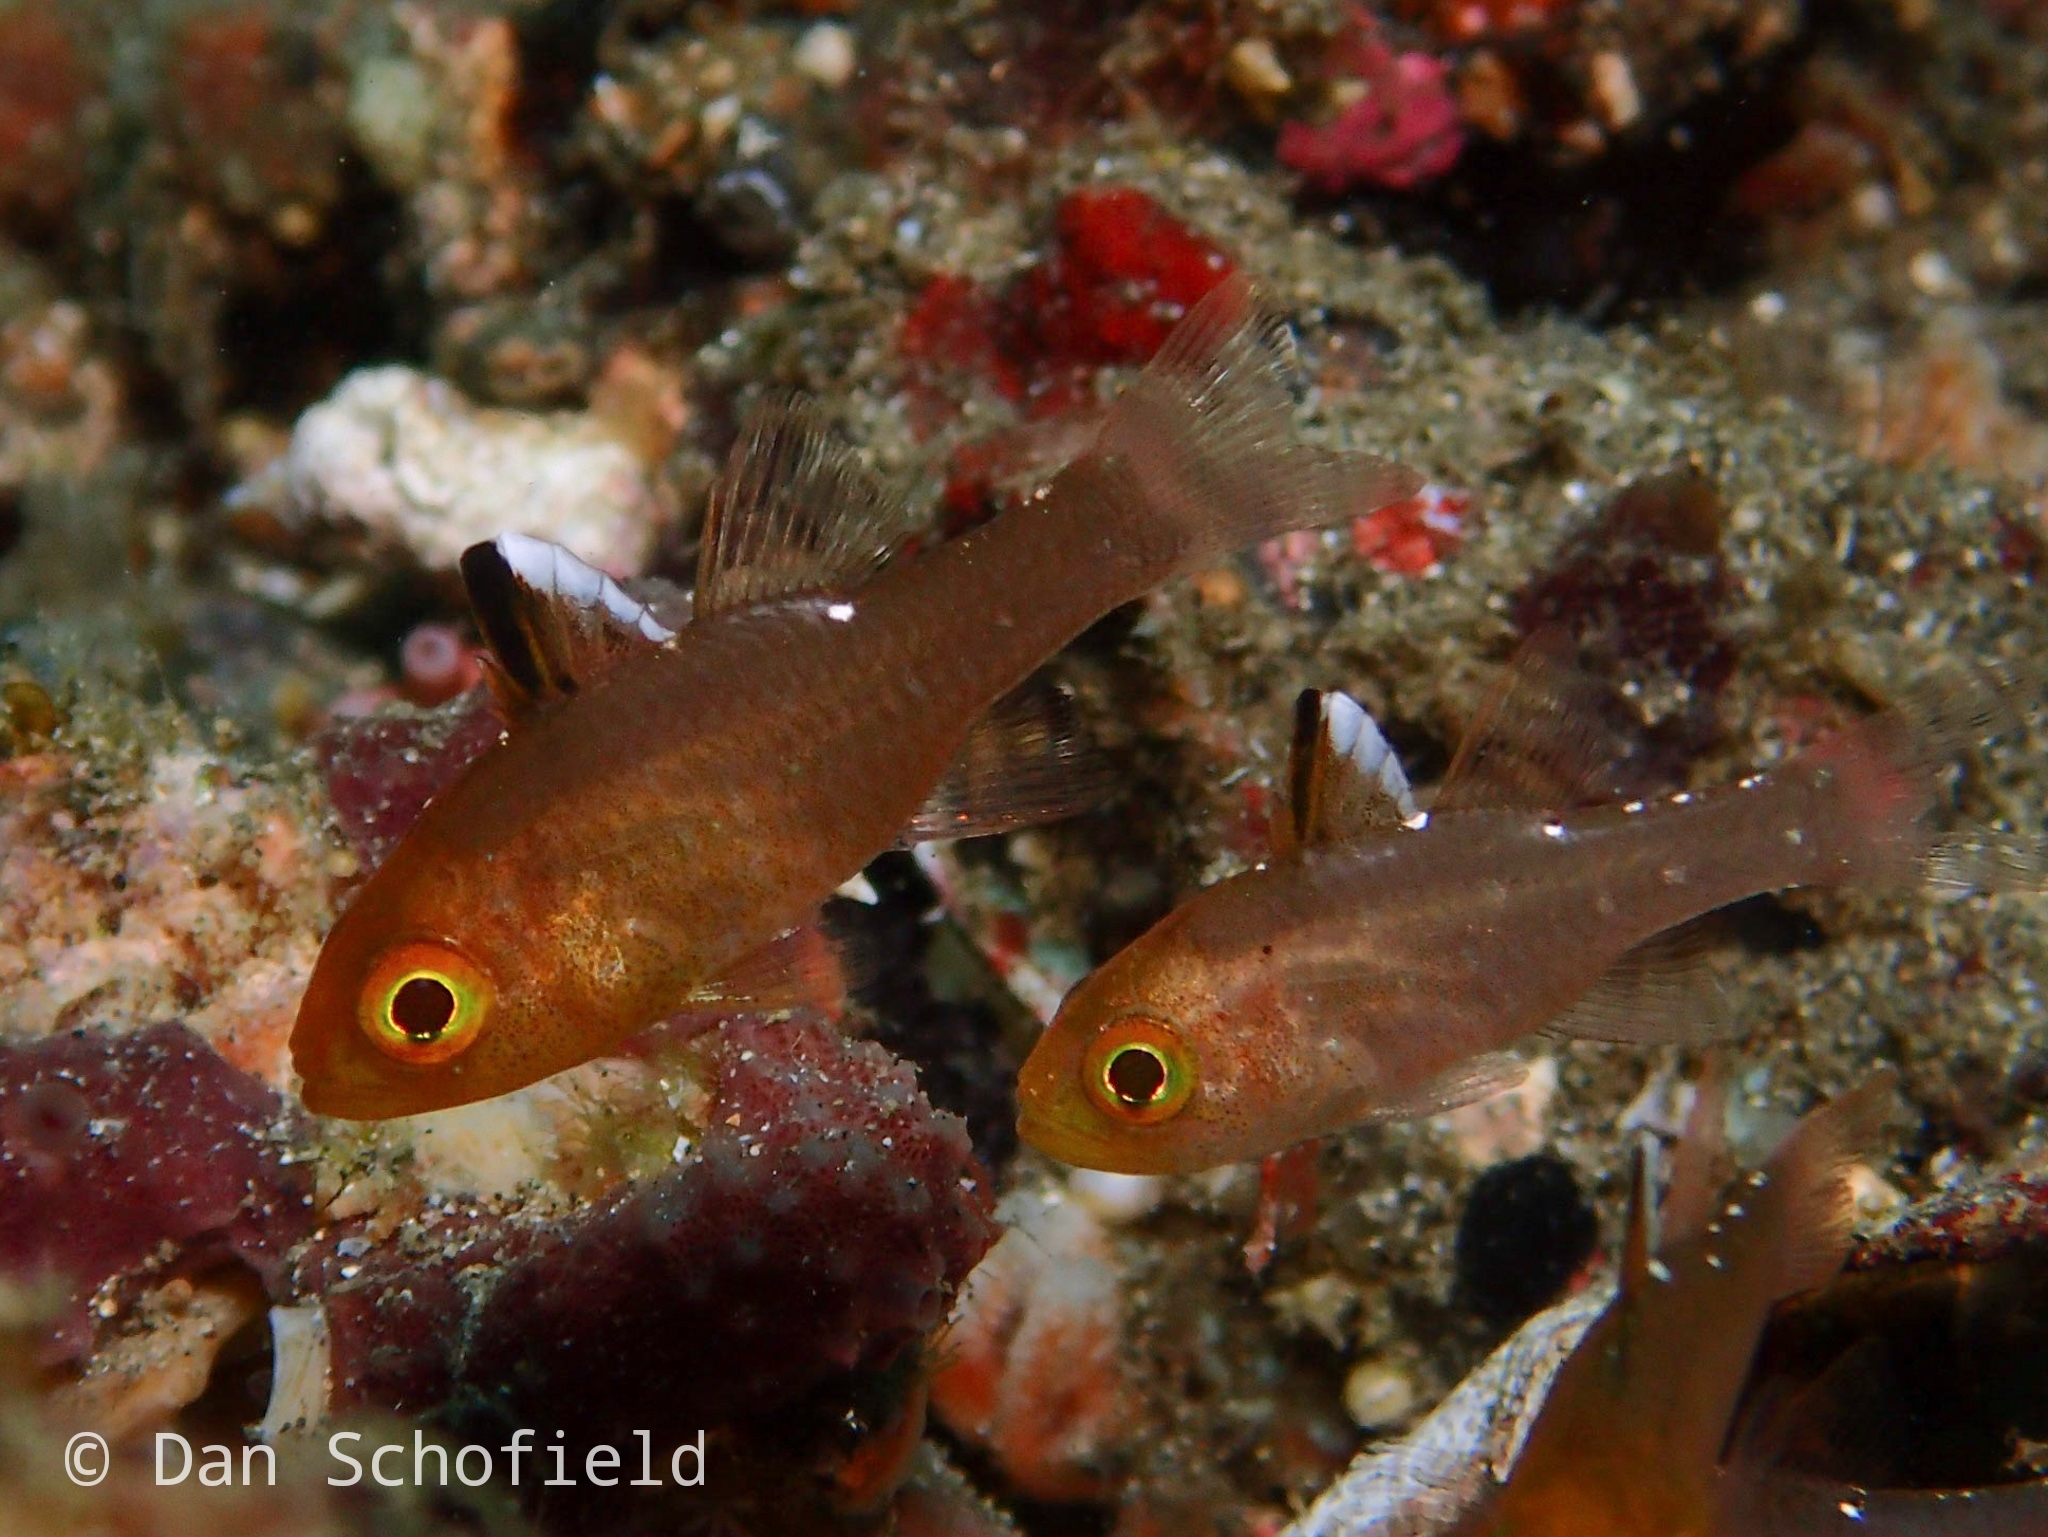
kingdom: Animalia
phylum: Chordata
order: Perciformes
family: Apogonidae
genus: Ostorhinchus
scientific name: Ostorhinchus hoevenii
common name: Flag-fin cardinal
